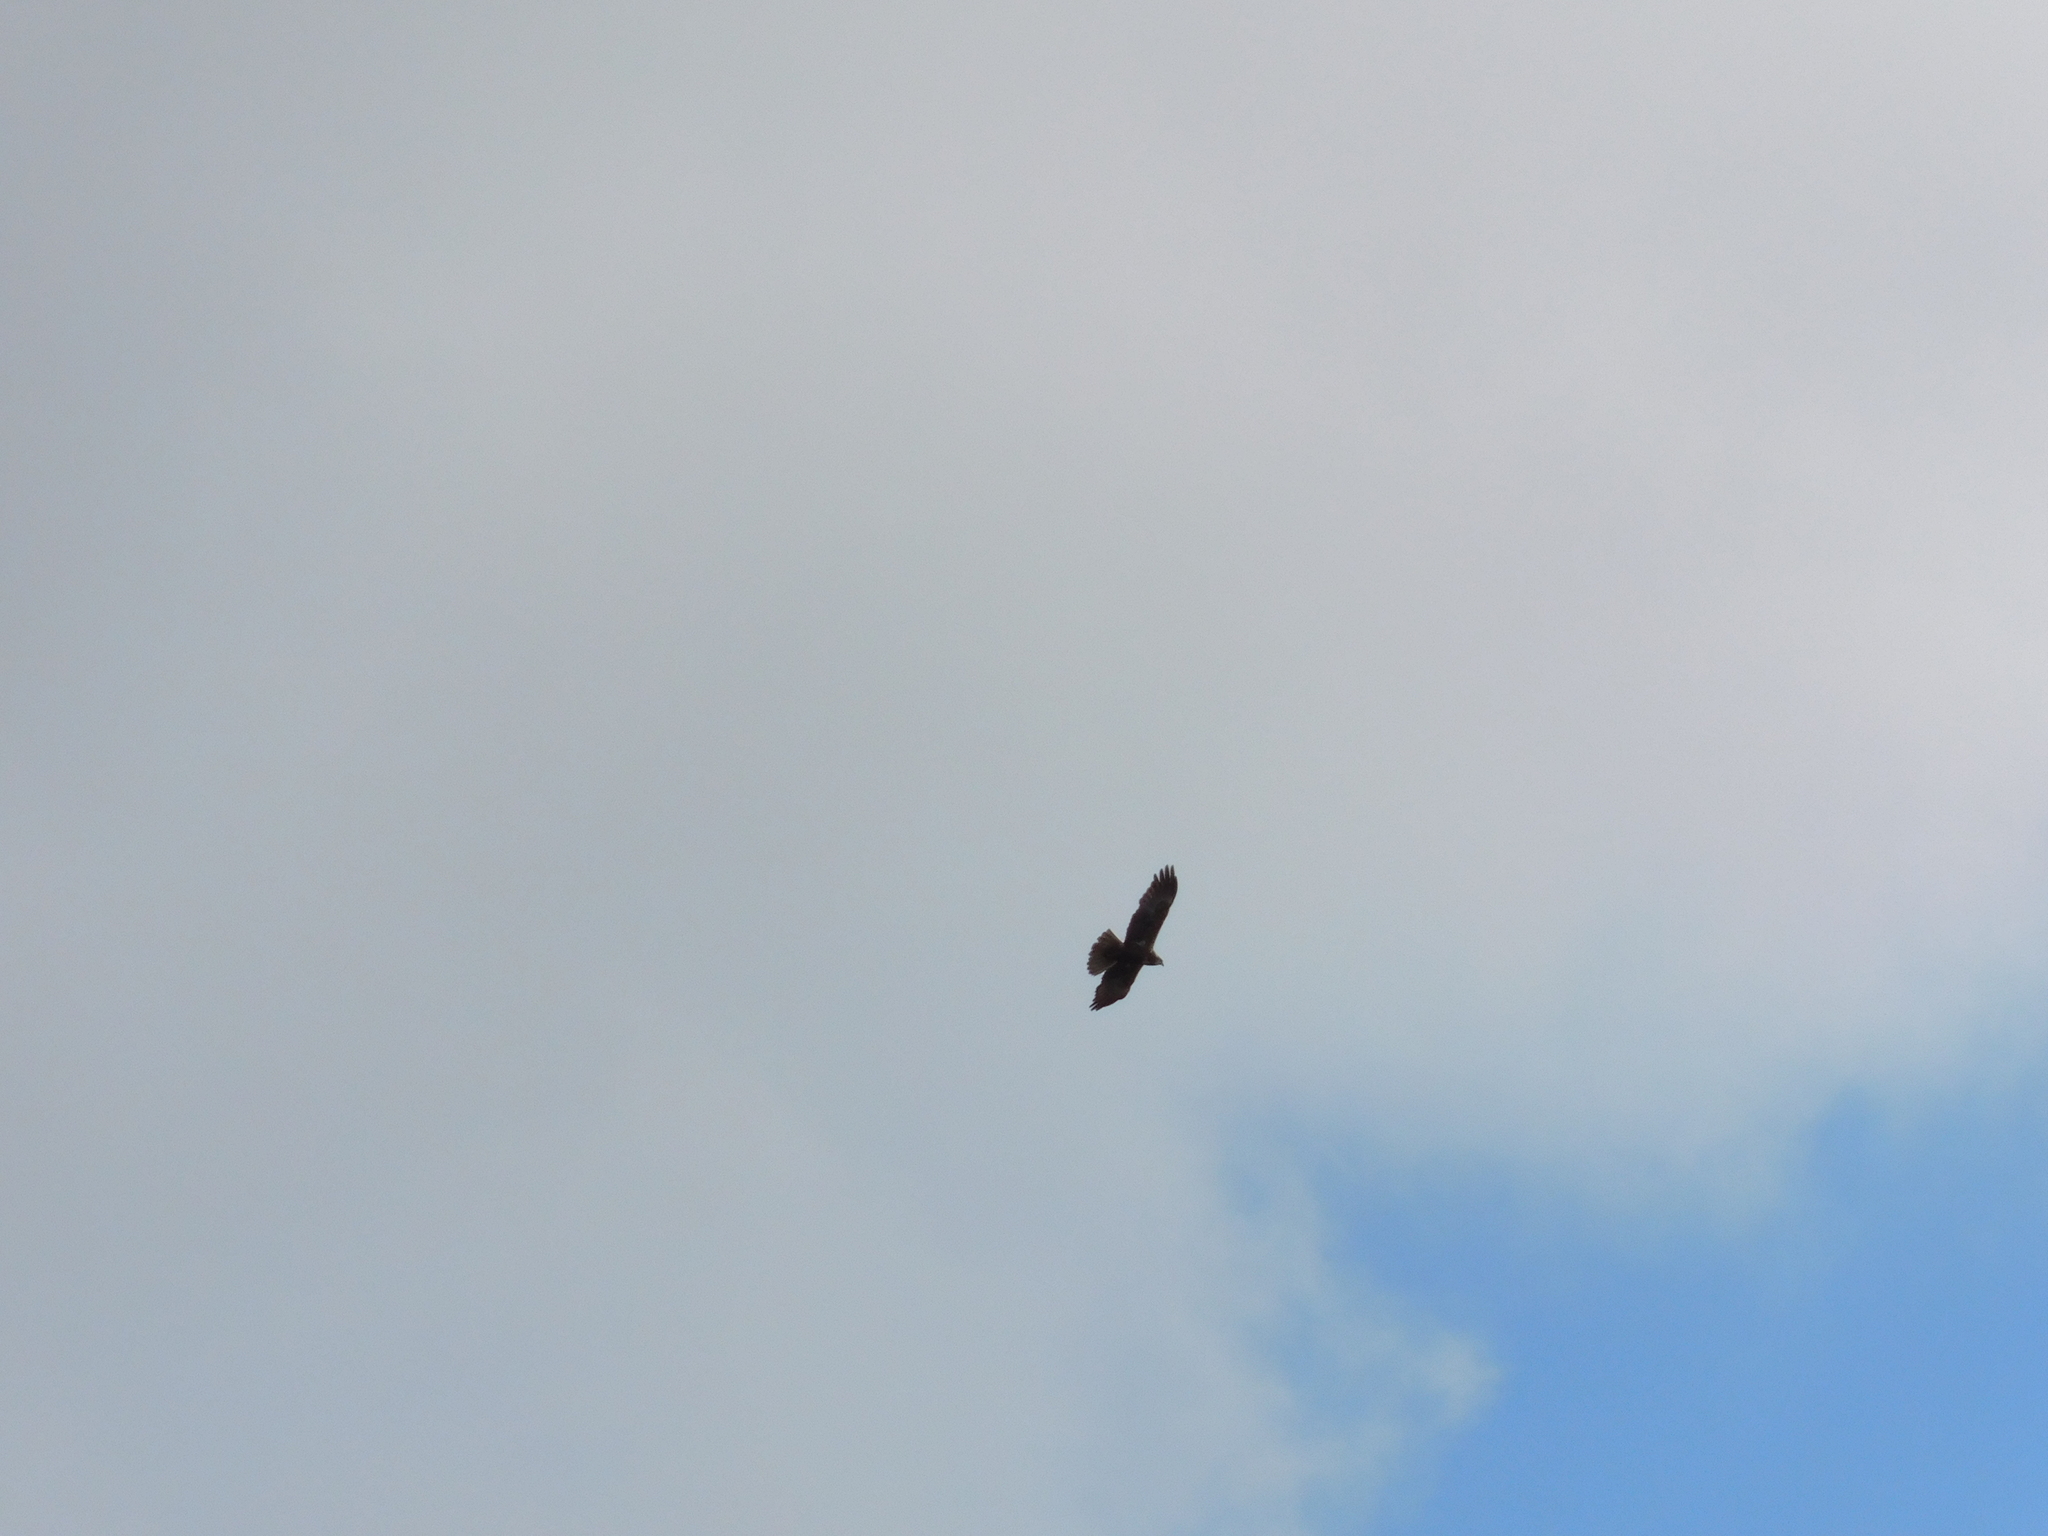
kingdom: Animalia
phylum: Chordata
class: Aves
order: Accipitriformes
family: Accipitridae
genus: Circus
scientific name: Circus aeruginosus
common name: Western marsh harrier
